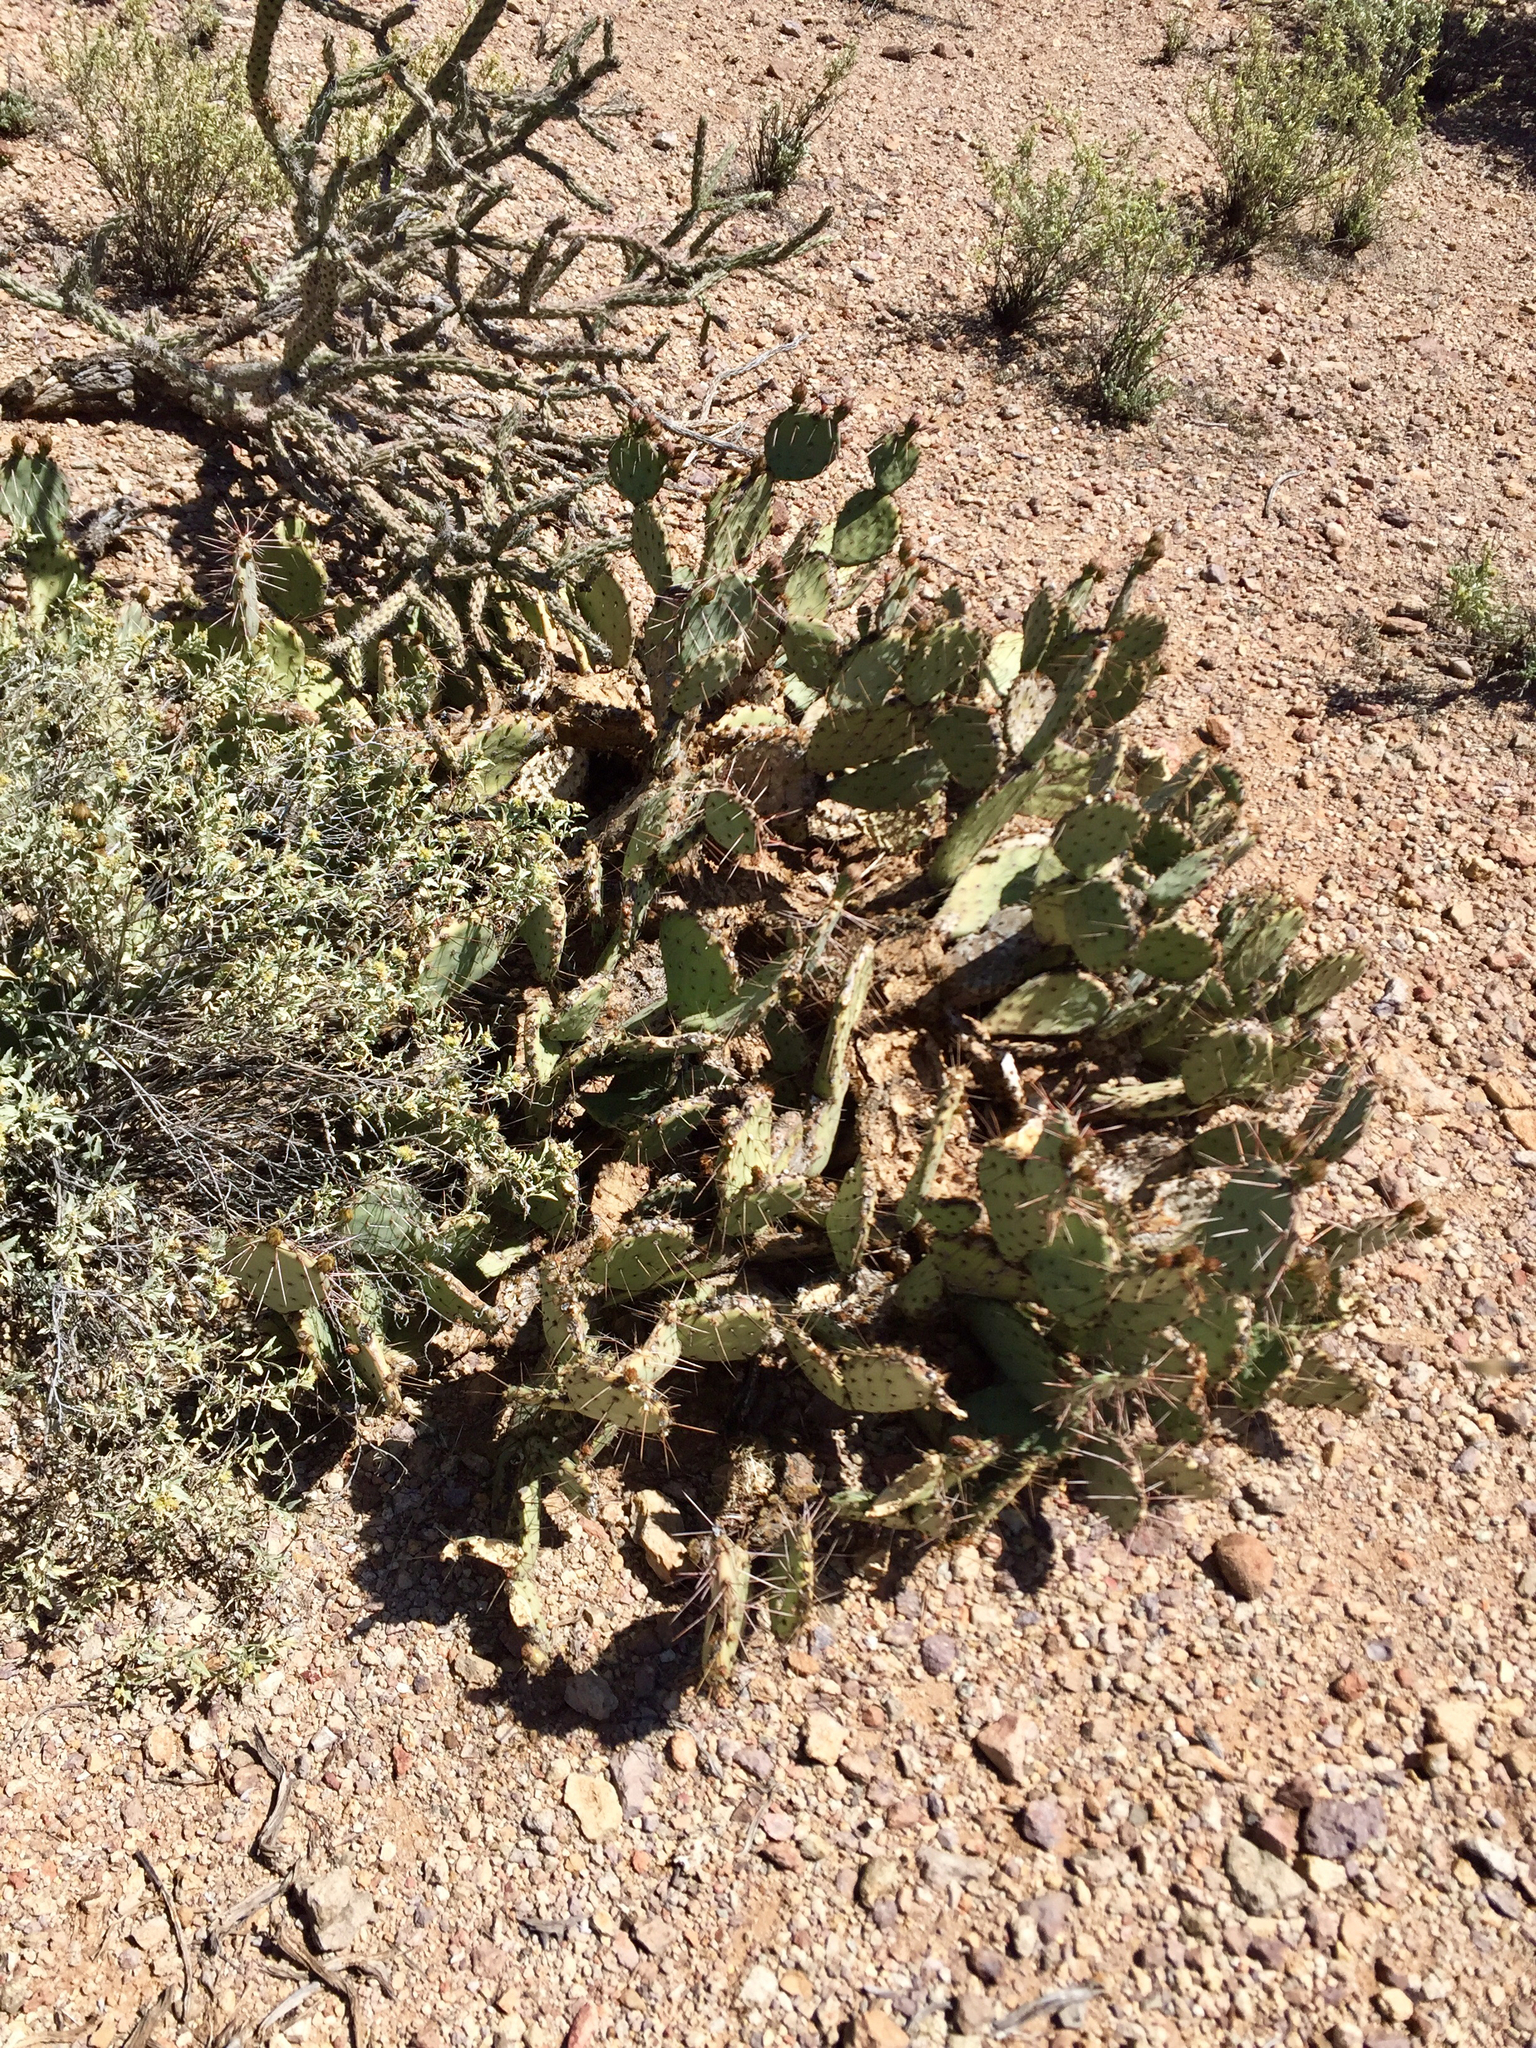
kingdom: Plantae
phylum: Tracheophyta
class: Magnoliopsida
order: Caryophyllales
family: Cactaceae
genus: Opuntia
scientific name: Opuntia phaeacantha
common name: New mexico prickly-pear
